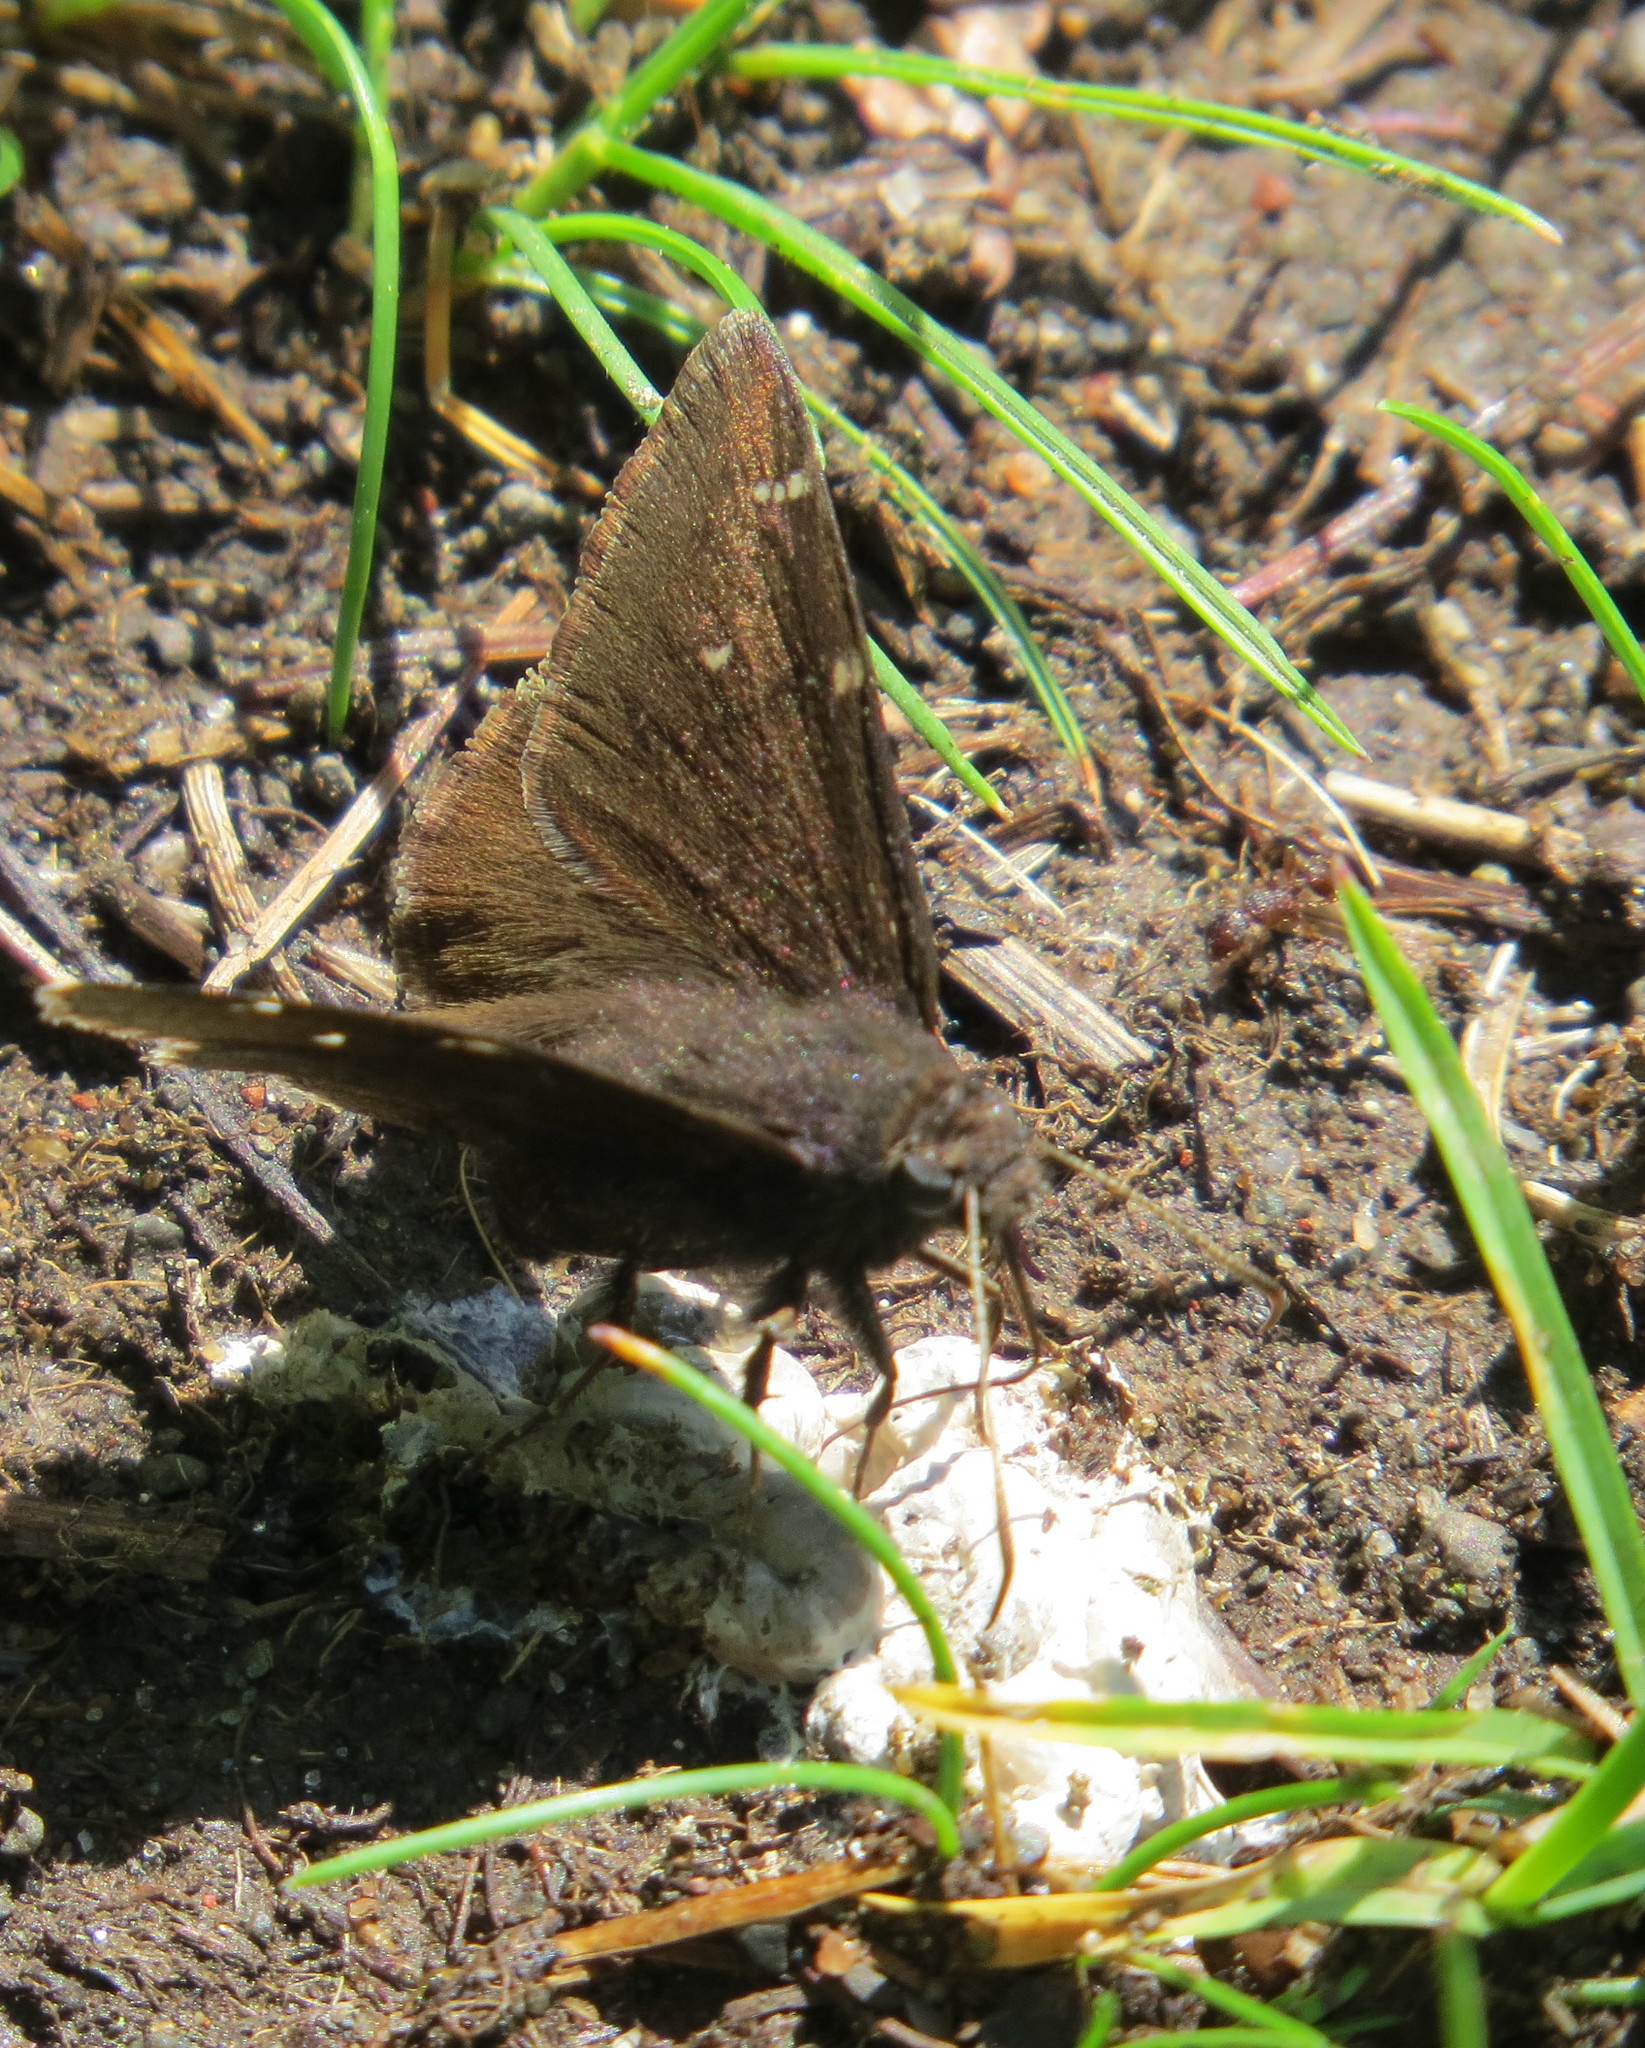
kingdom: Animalia
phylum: Arthropoda
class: Insecta
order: Lepidoptera
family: Hesperiidae
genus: Thorybes
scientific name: Thorybes pylades
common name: Northern cloudywing
